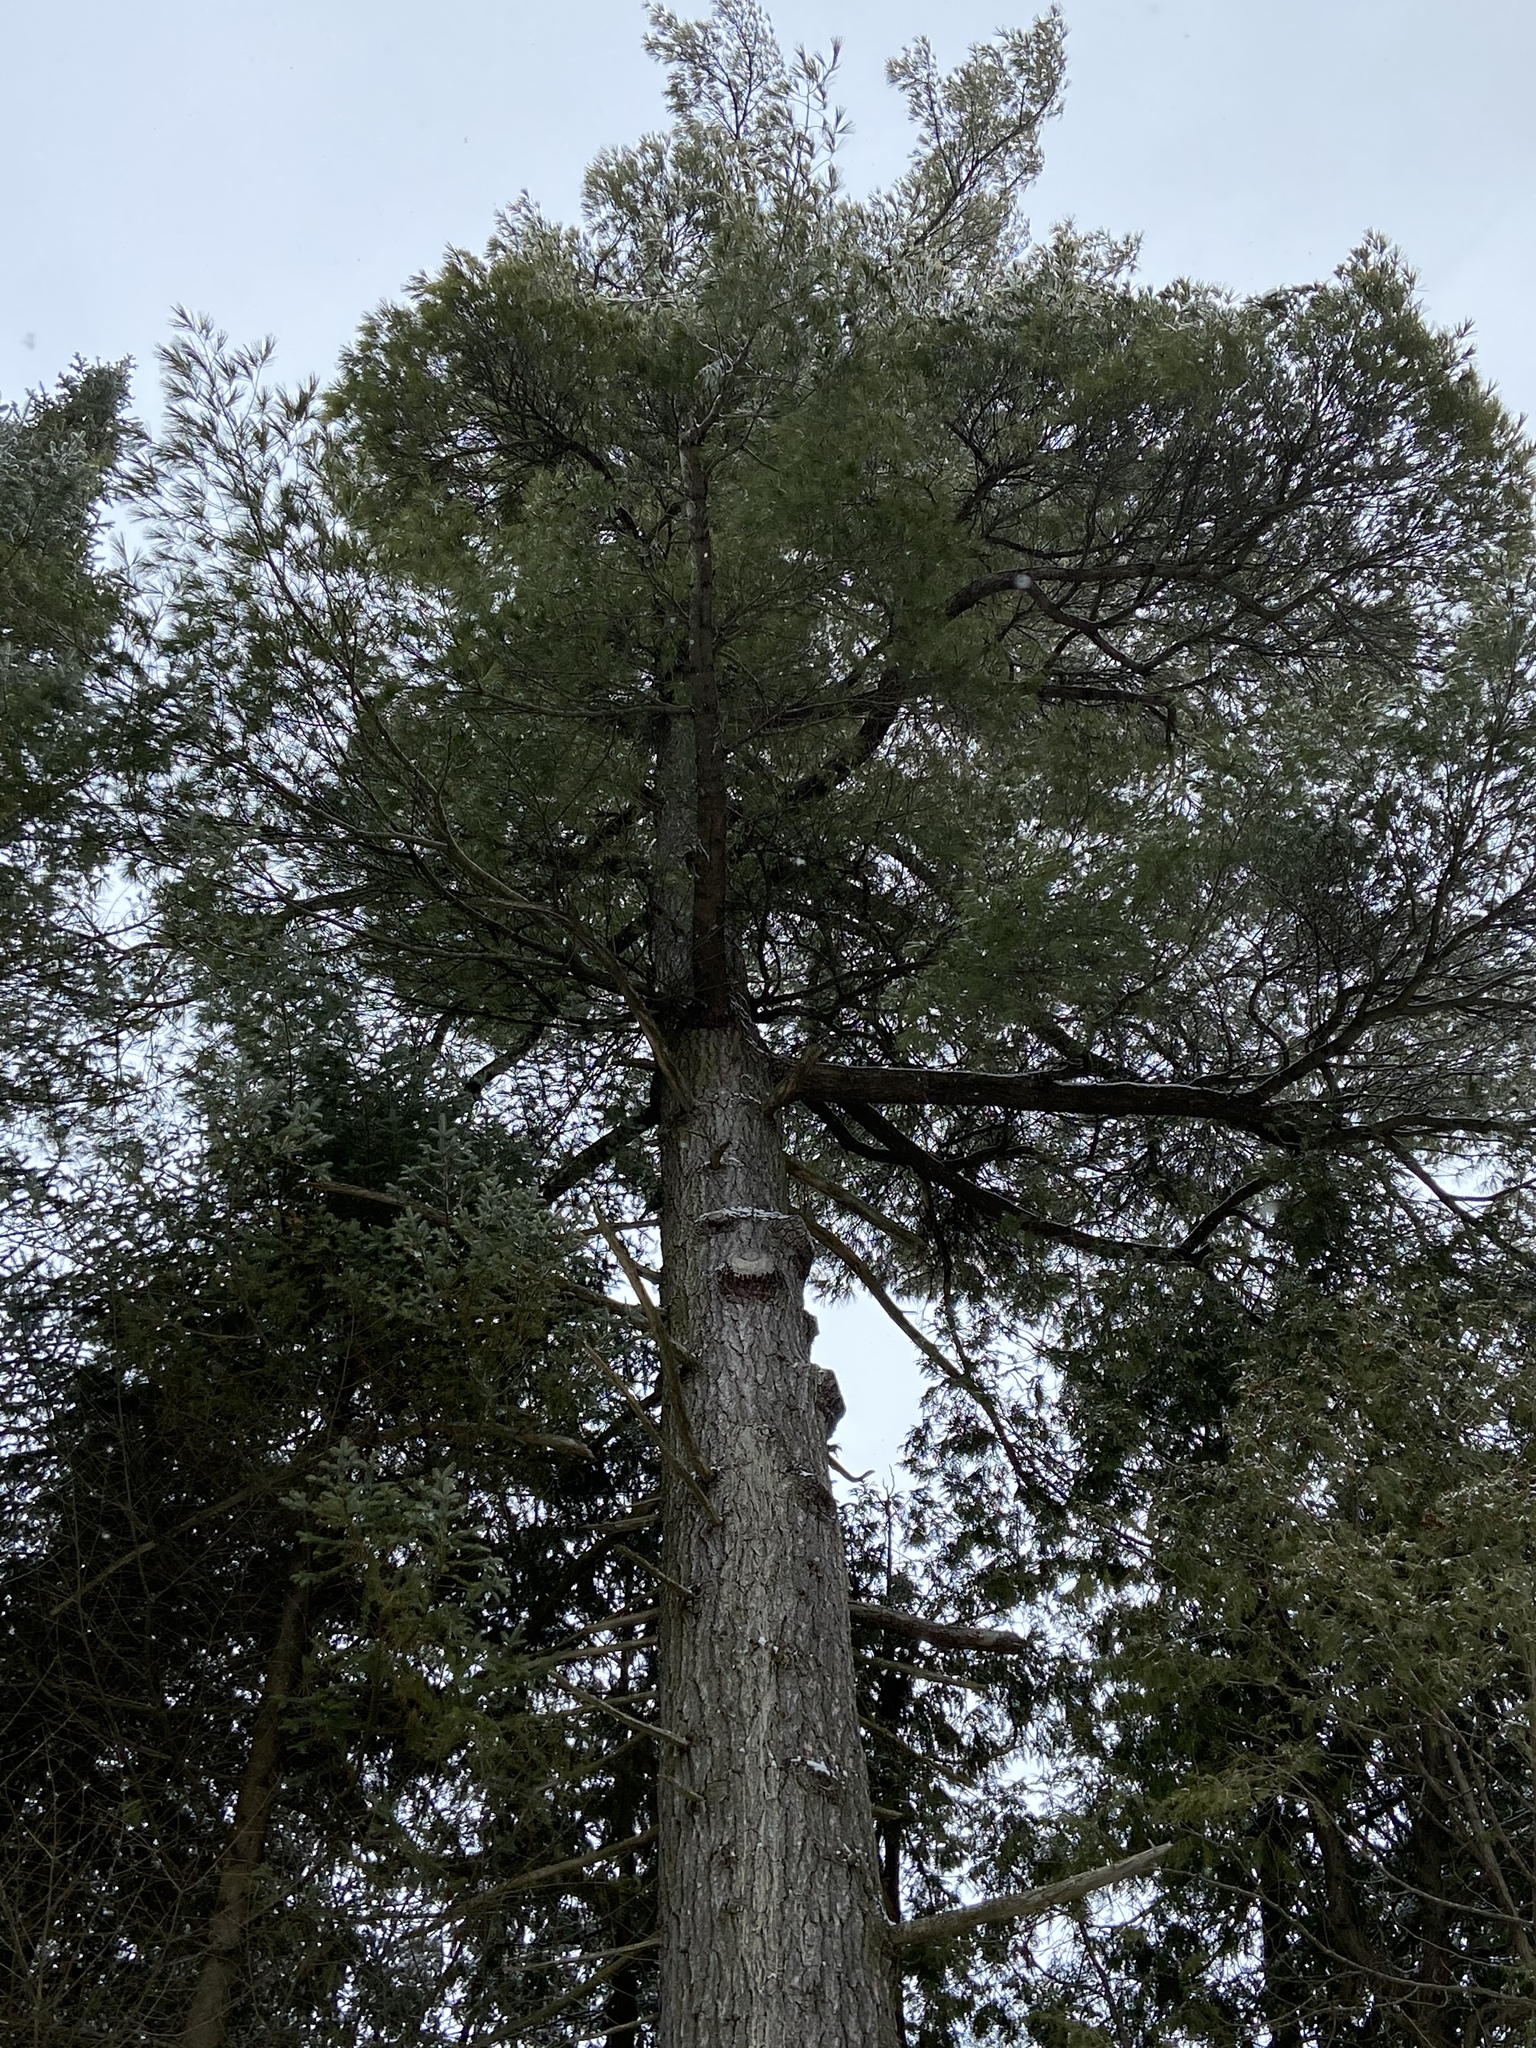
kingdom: Plantae
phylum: Tracheophyta
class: Pinopsida
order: Pinales
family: Pinaceae
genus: Pinus
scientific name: Pinus strobus
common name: Weymouth pine
